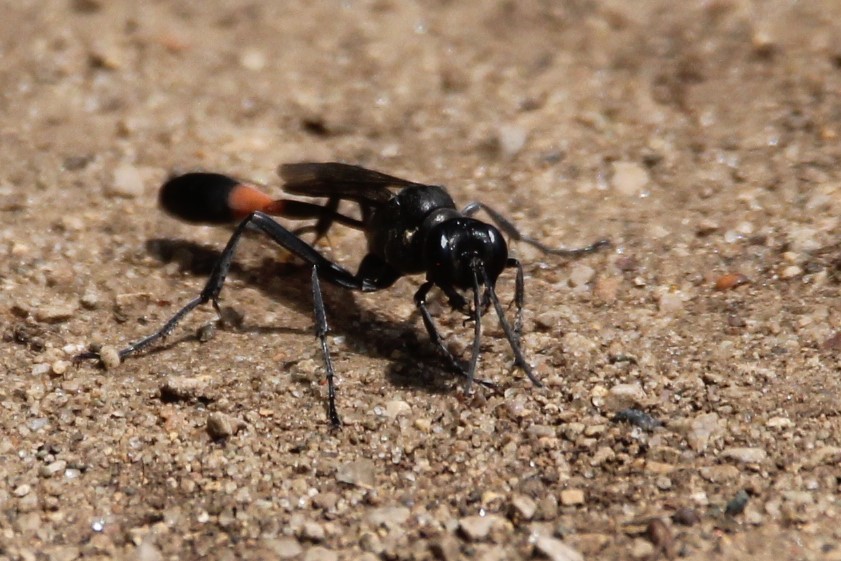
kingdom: Animalia
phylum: Arthropoda
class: Insecta
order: Hymenoptera
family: Sphecidae
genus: Ammophila
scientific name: Ammophila nigricans
